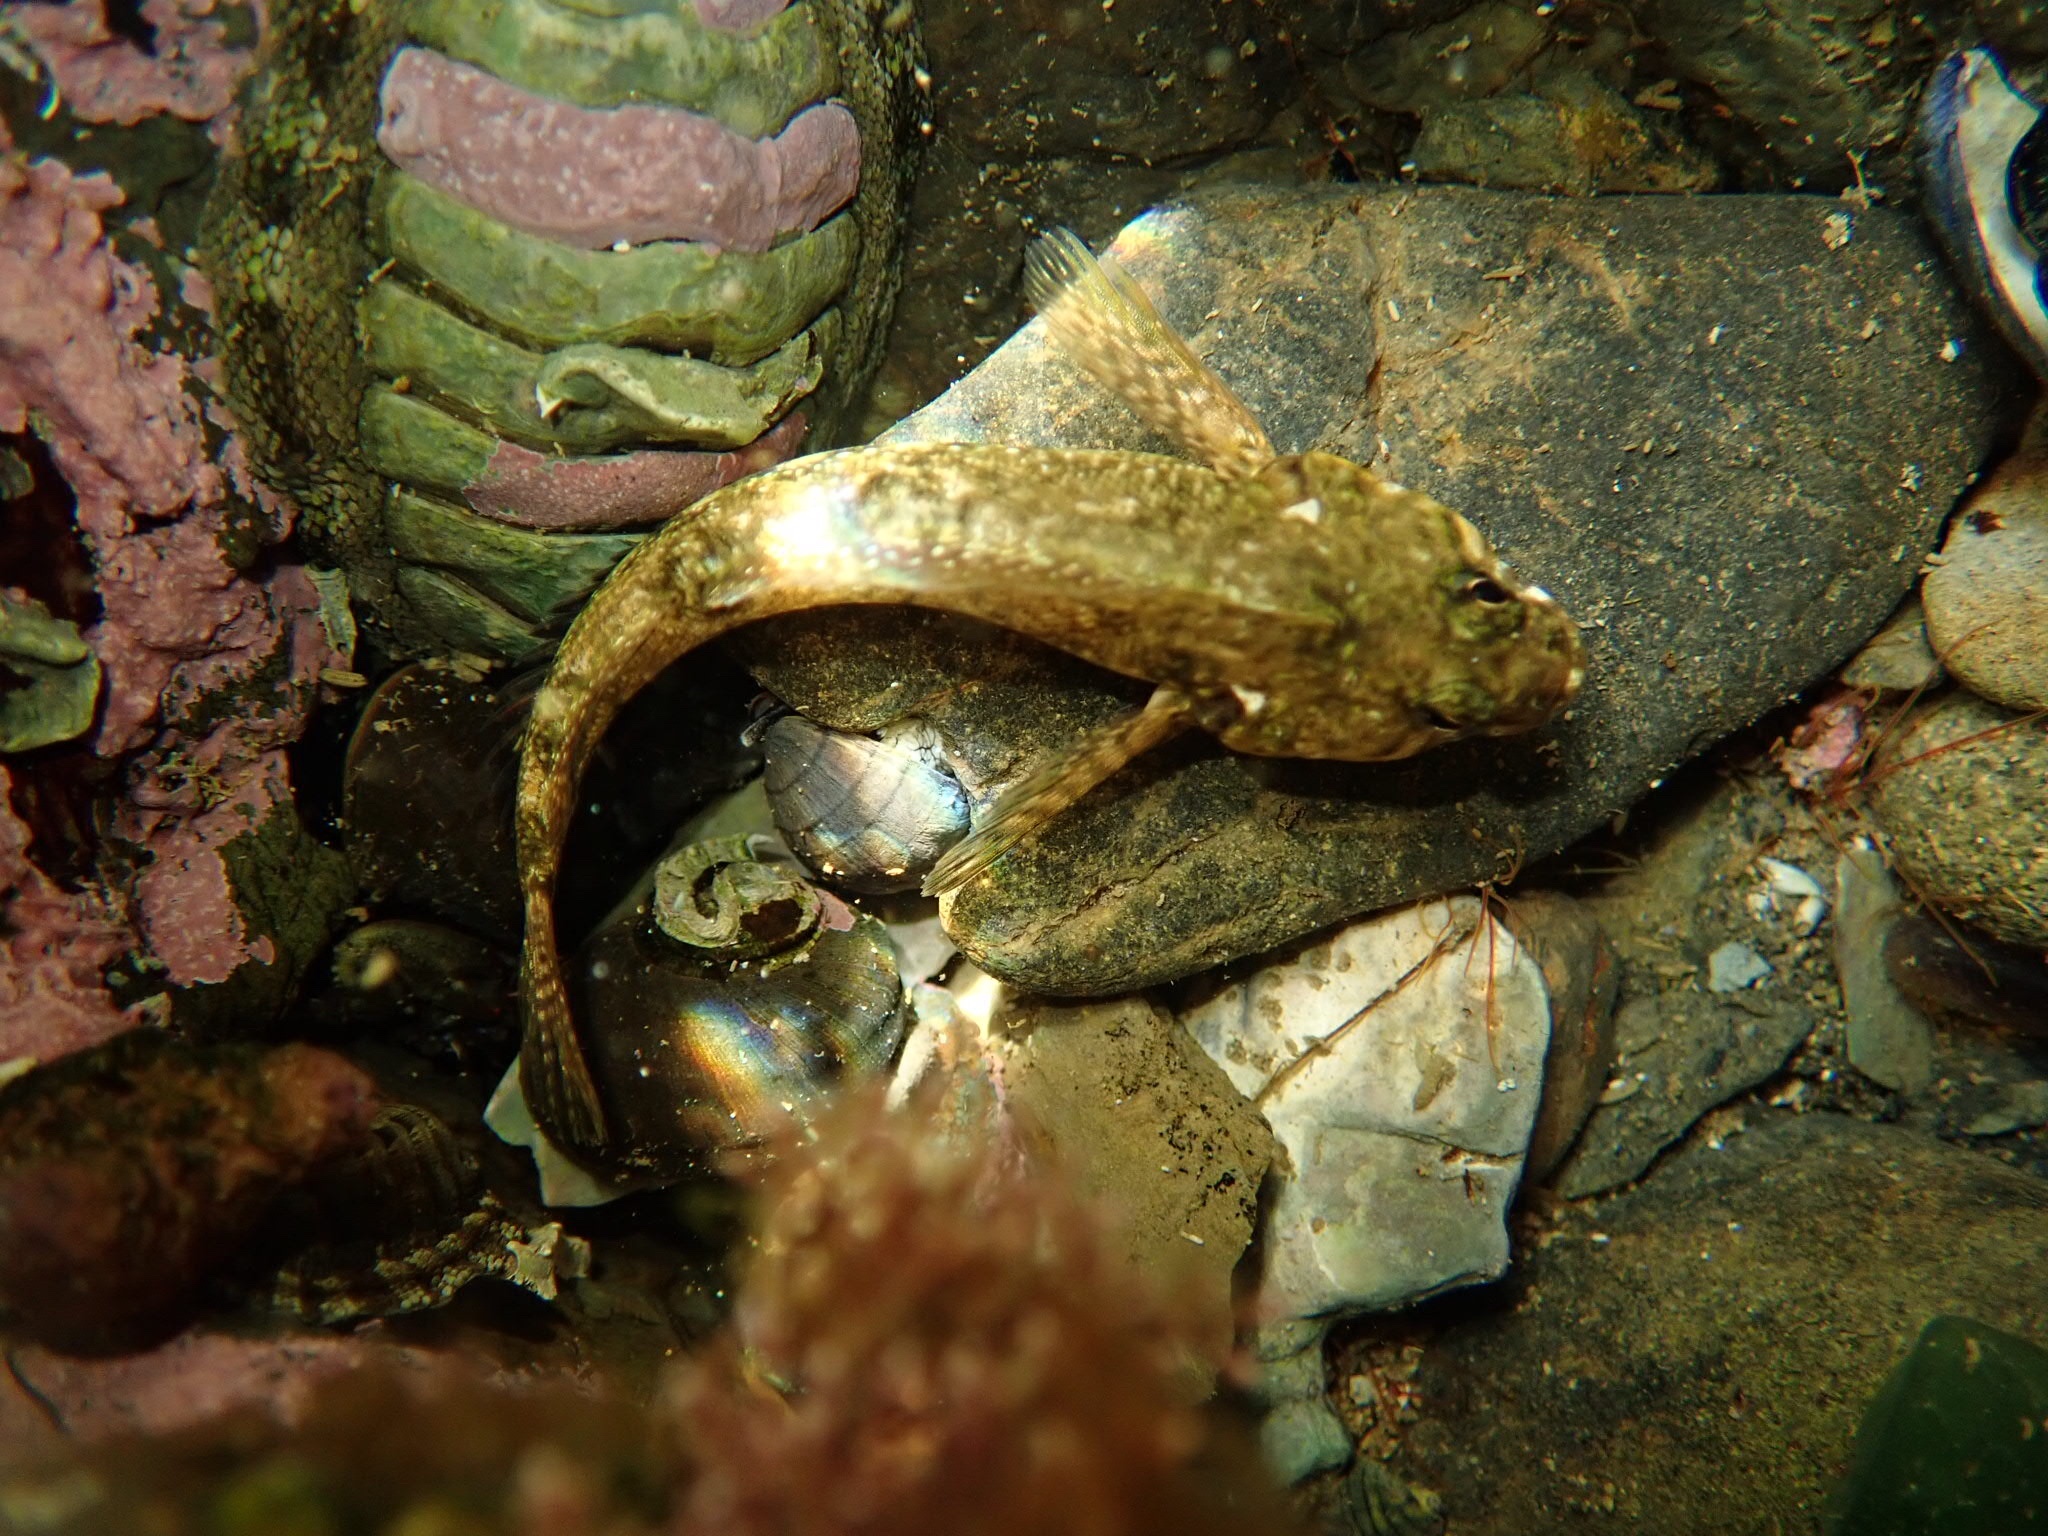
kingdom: Animalia
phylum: Chordata
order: Perciformes
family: Tripterygiidae
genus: Bellapiscis
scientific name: Bellapiscis medius
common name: Twister
